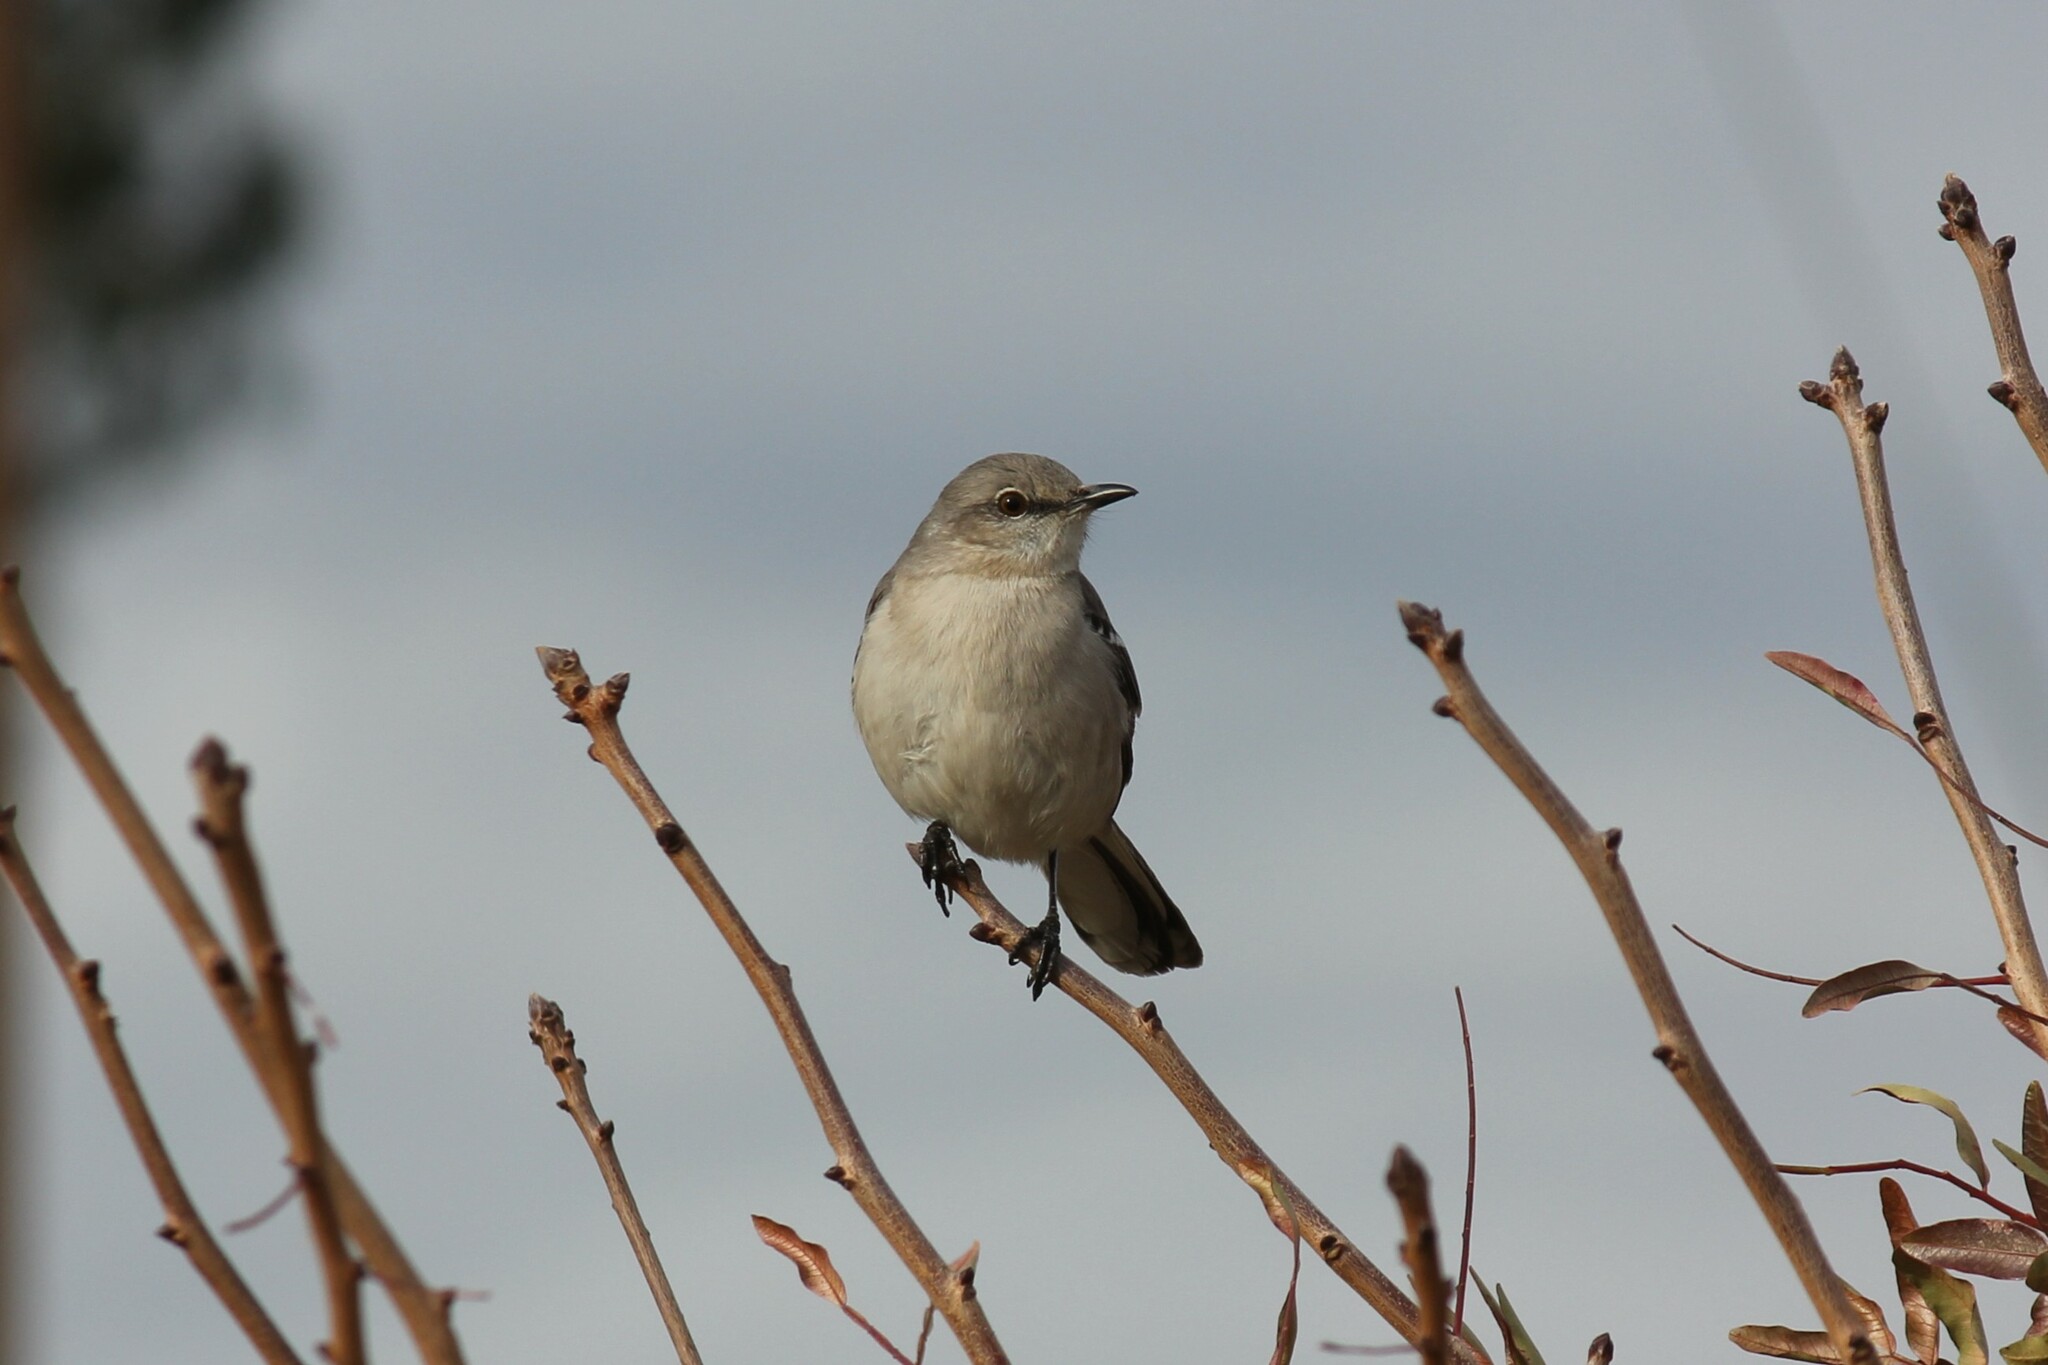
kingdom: Animalia
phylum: Chordata
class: Aves
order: Passeriformes
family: Mimidae
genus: Mimus
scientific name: Mimus polyglottos
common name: Northern mockingbird
